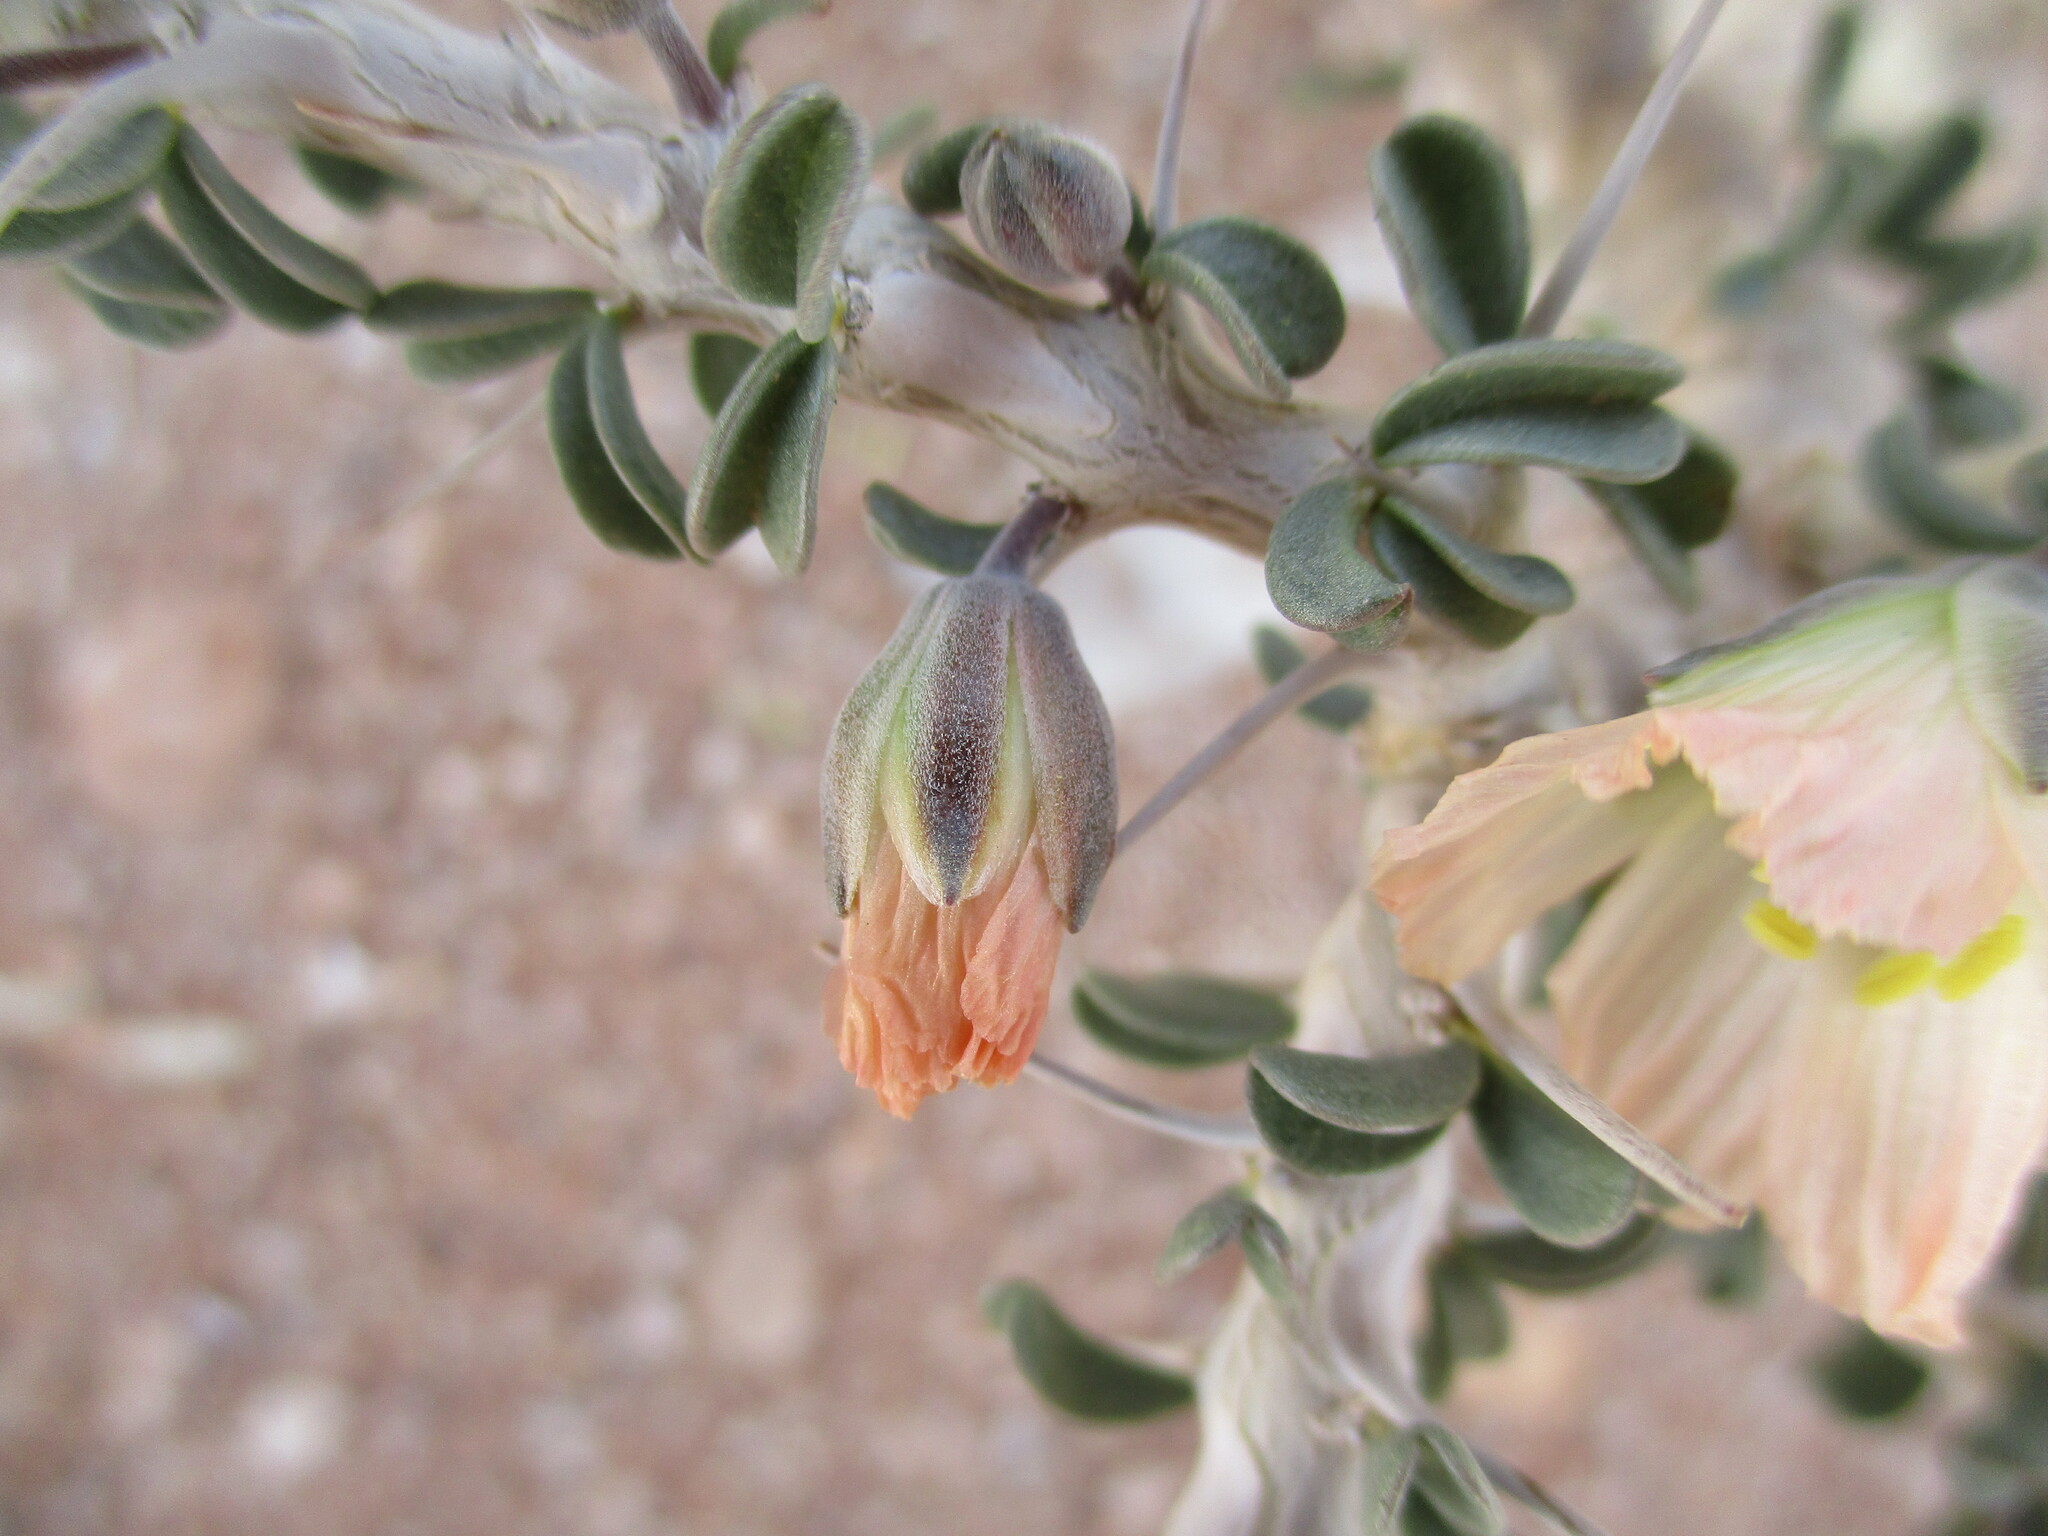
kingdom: Plantae
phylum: Tracheophyta
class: Magnoliopsida
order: Geraniales
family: Geraniaceae
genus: Monsonia
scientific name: Monsonia salmoniflora
